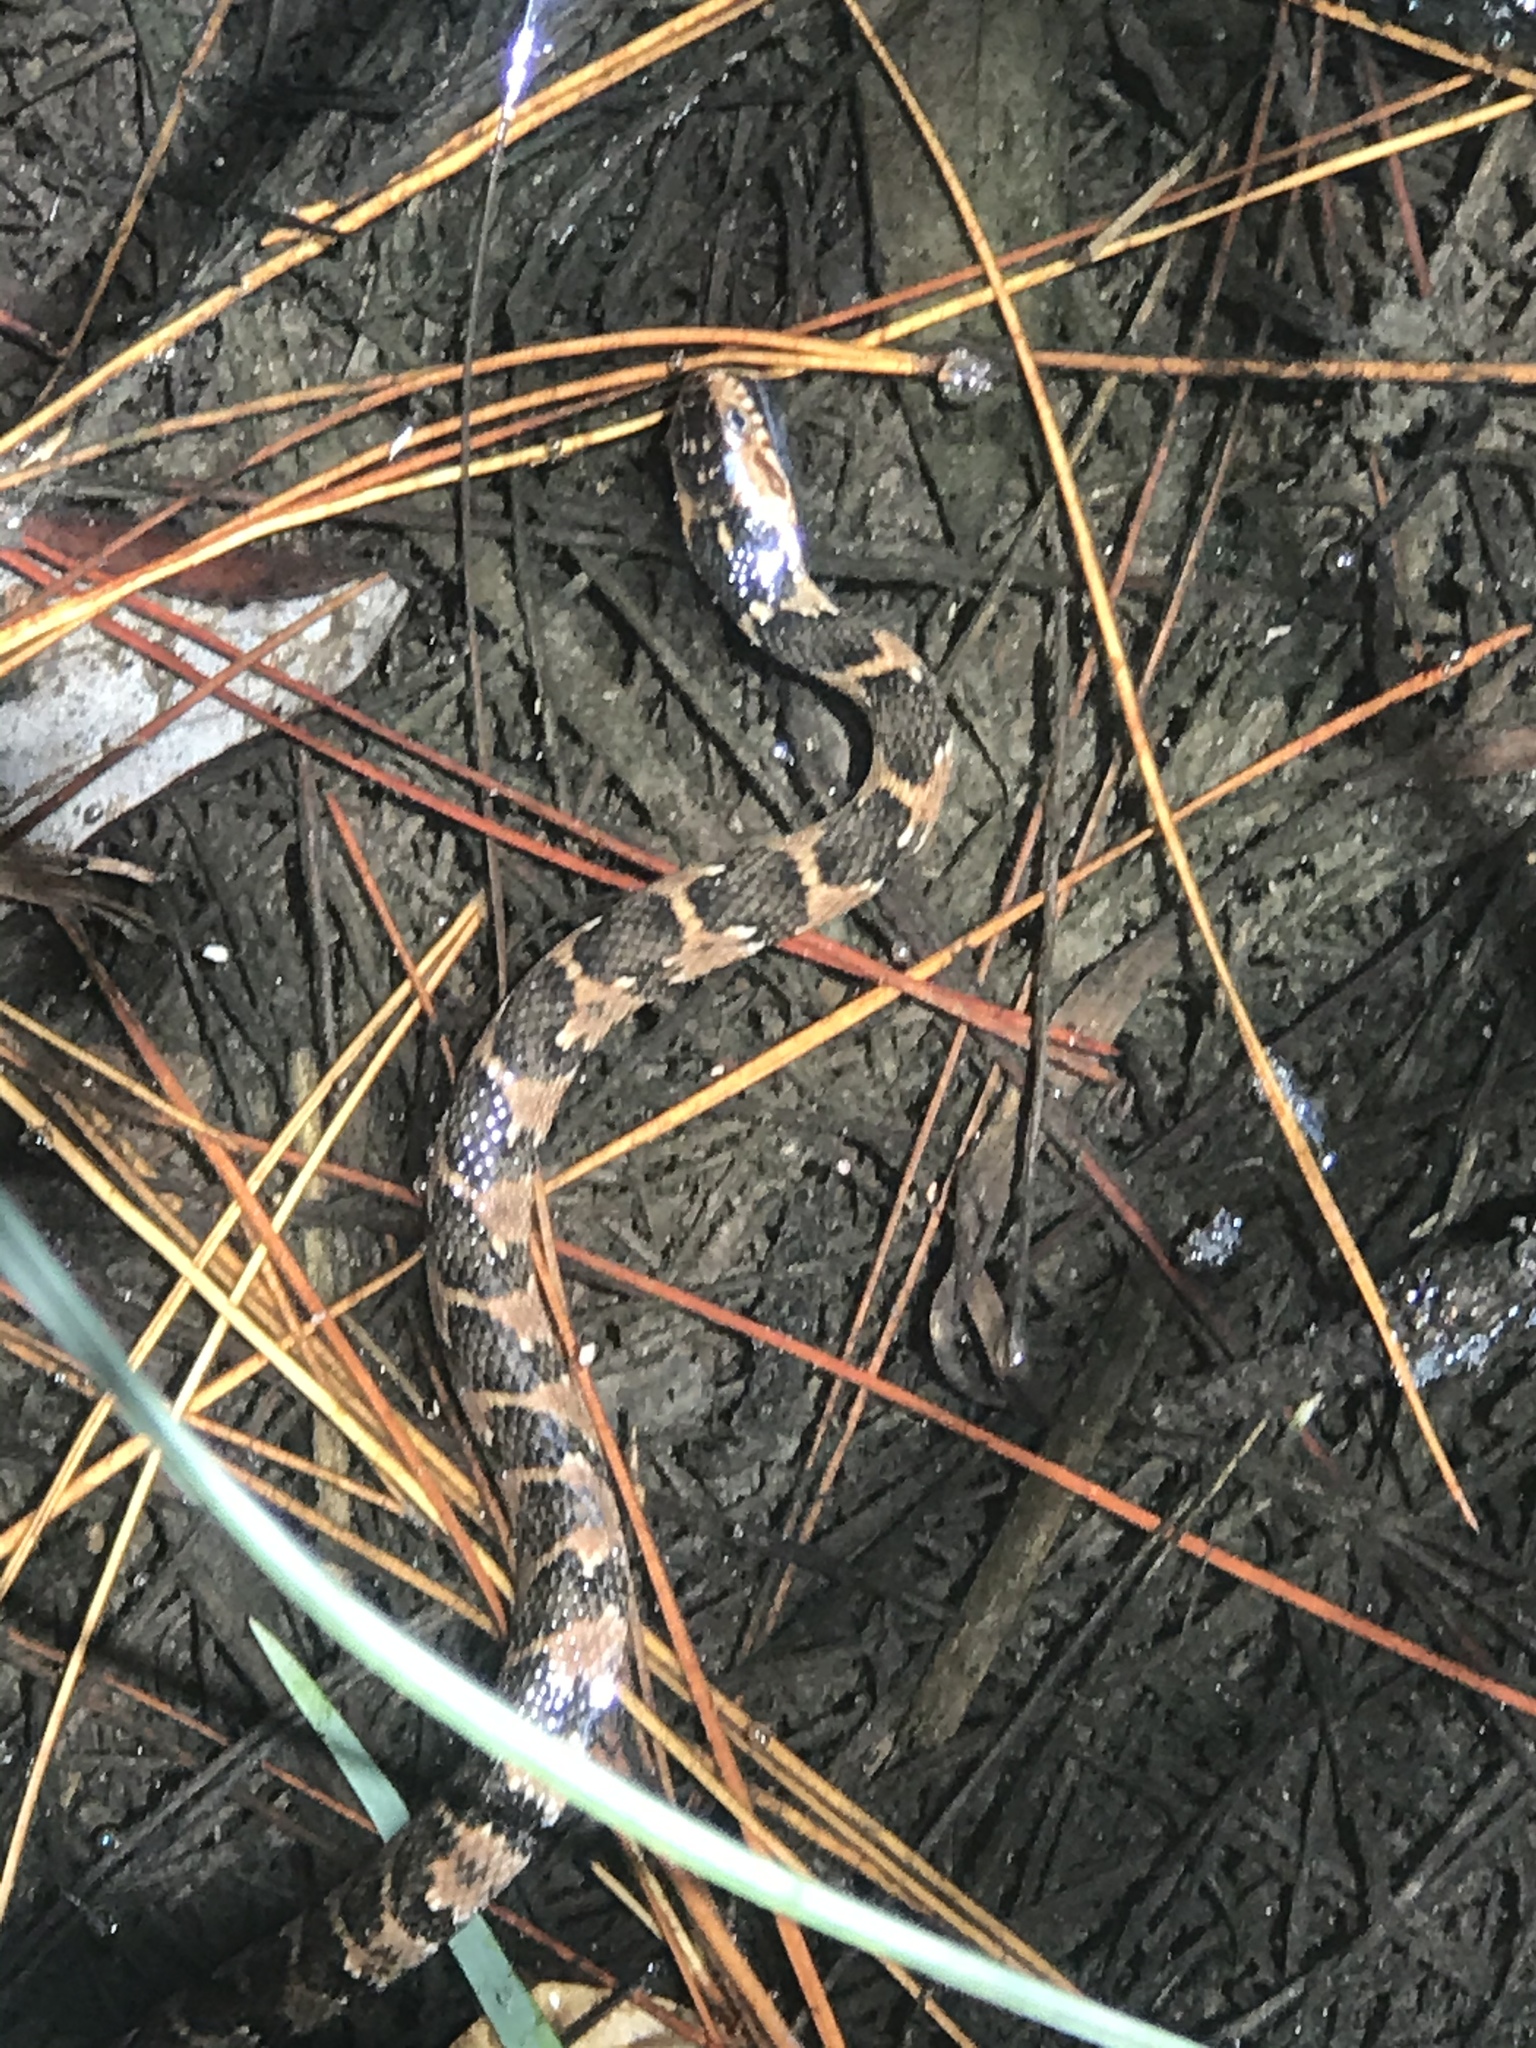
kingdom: Animalia
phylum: Chordata
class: Squamata
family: Colubridae
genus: Nerodia
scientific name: Nerodia fasciata
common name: Southern water snake
